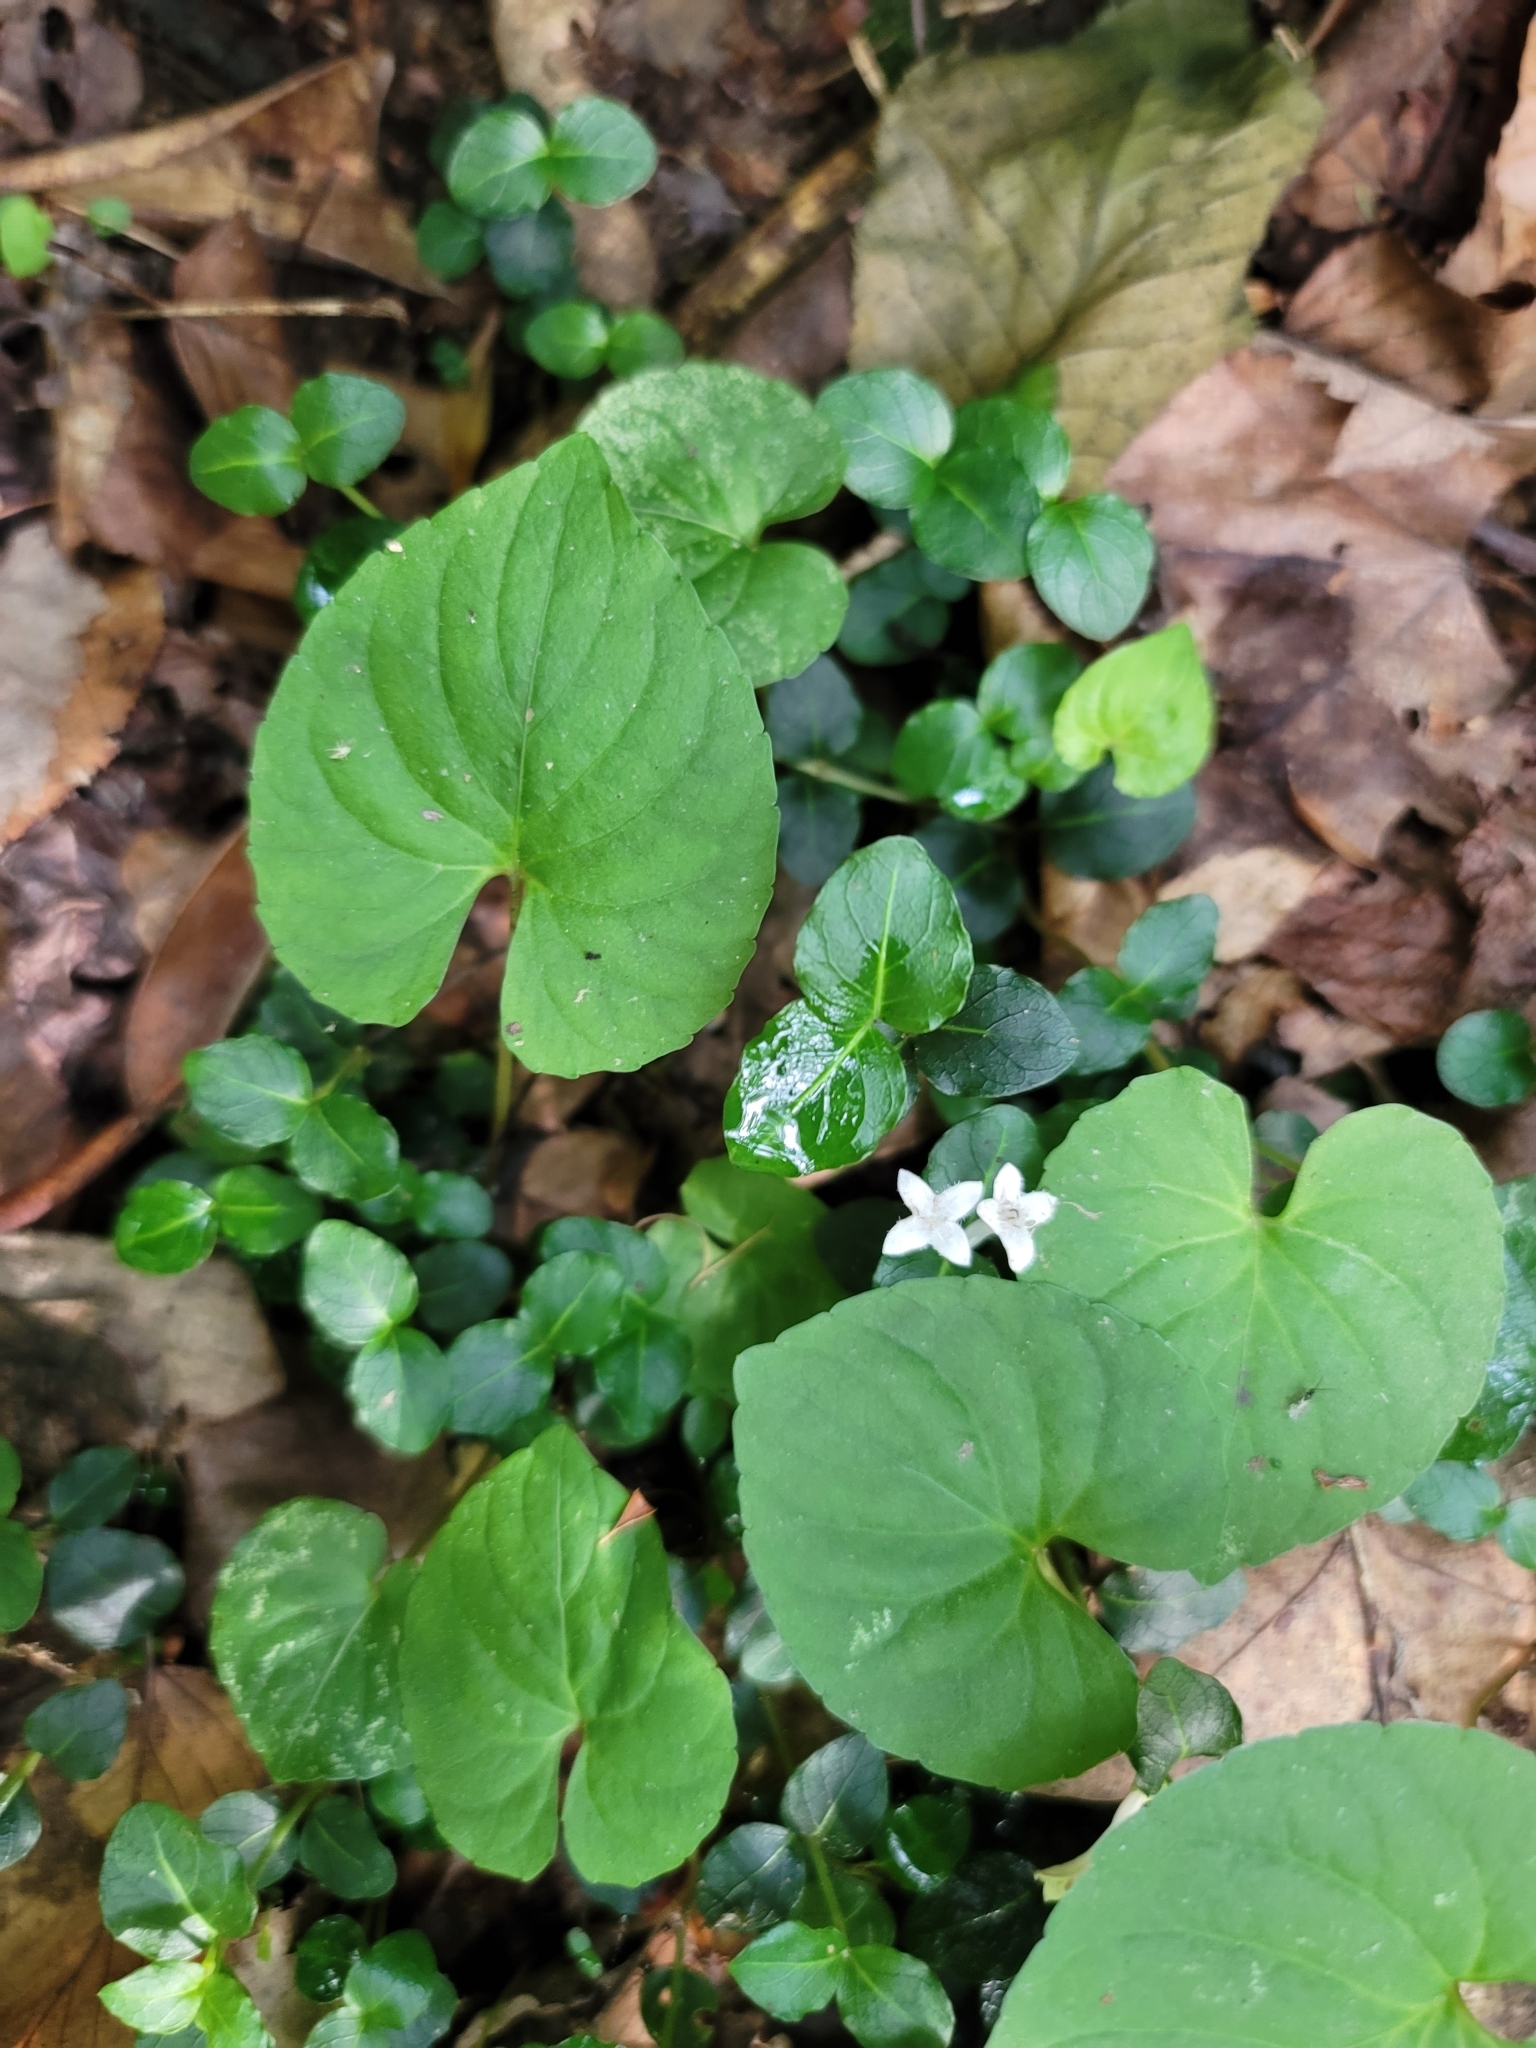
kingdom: Plantae
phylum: Tracheophyta
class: Magnoliopsida
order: Gentianales
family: Rubiaceae
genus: Mitchella
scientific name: Mitchella repens
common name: Partridge-berry
